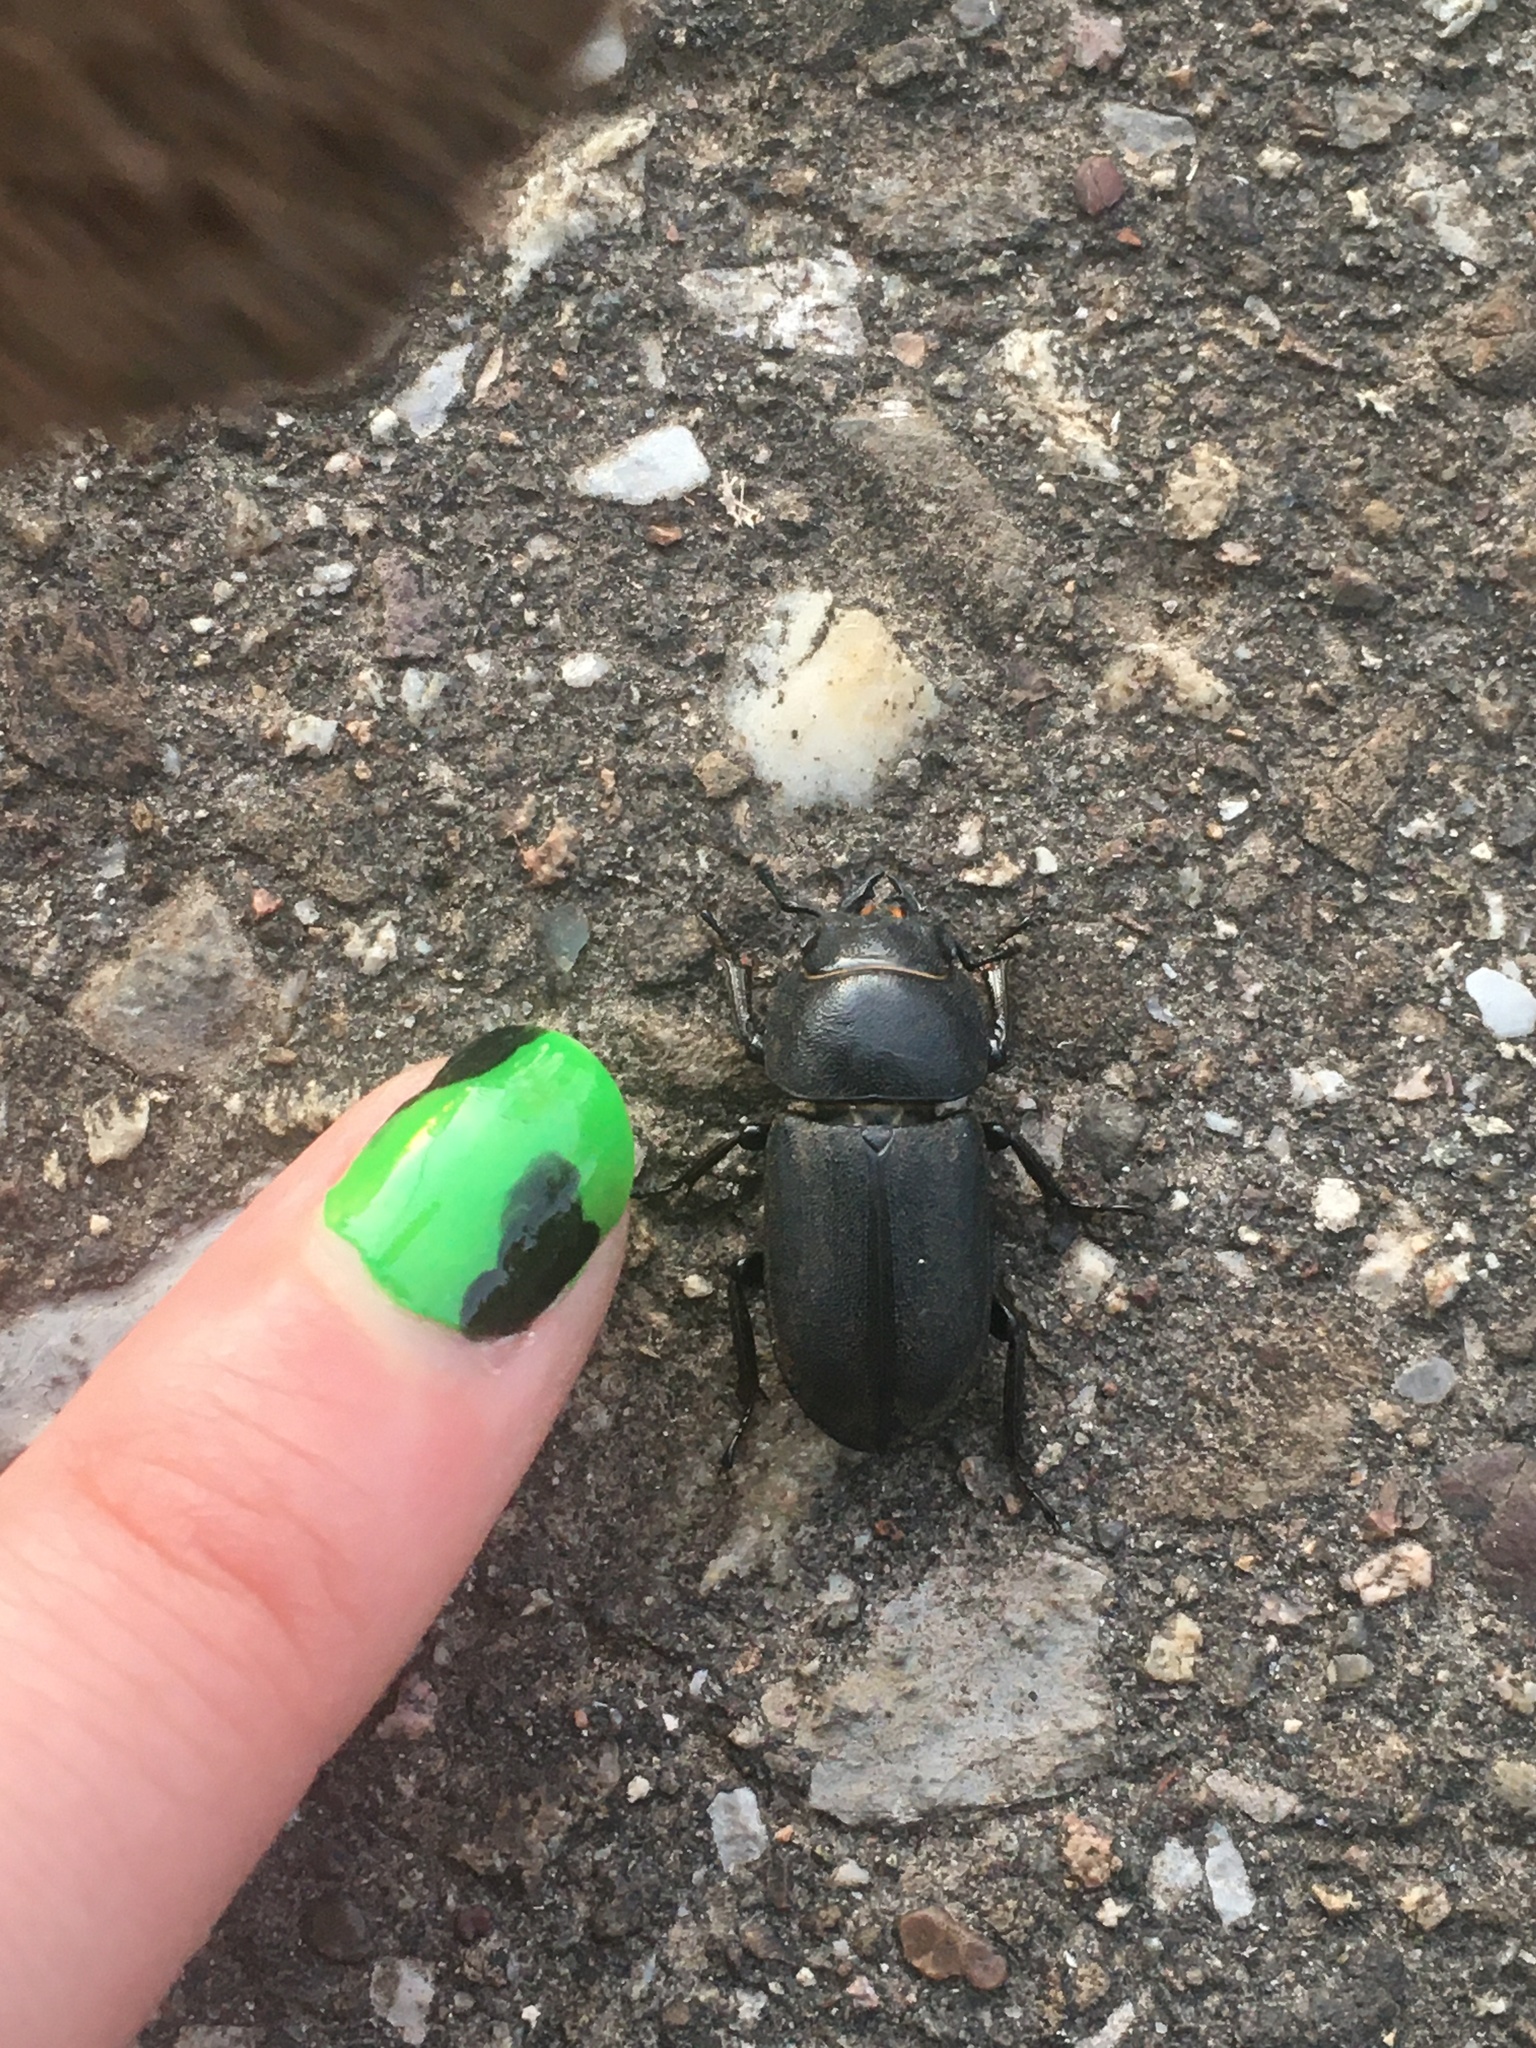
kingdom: Animalia
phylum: Arthropoda
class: Insecta
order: Coleoptera
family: Lucanidae
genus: Dorcus
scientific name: Dorcus parallelipipedus
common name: Lesser stag beetle
